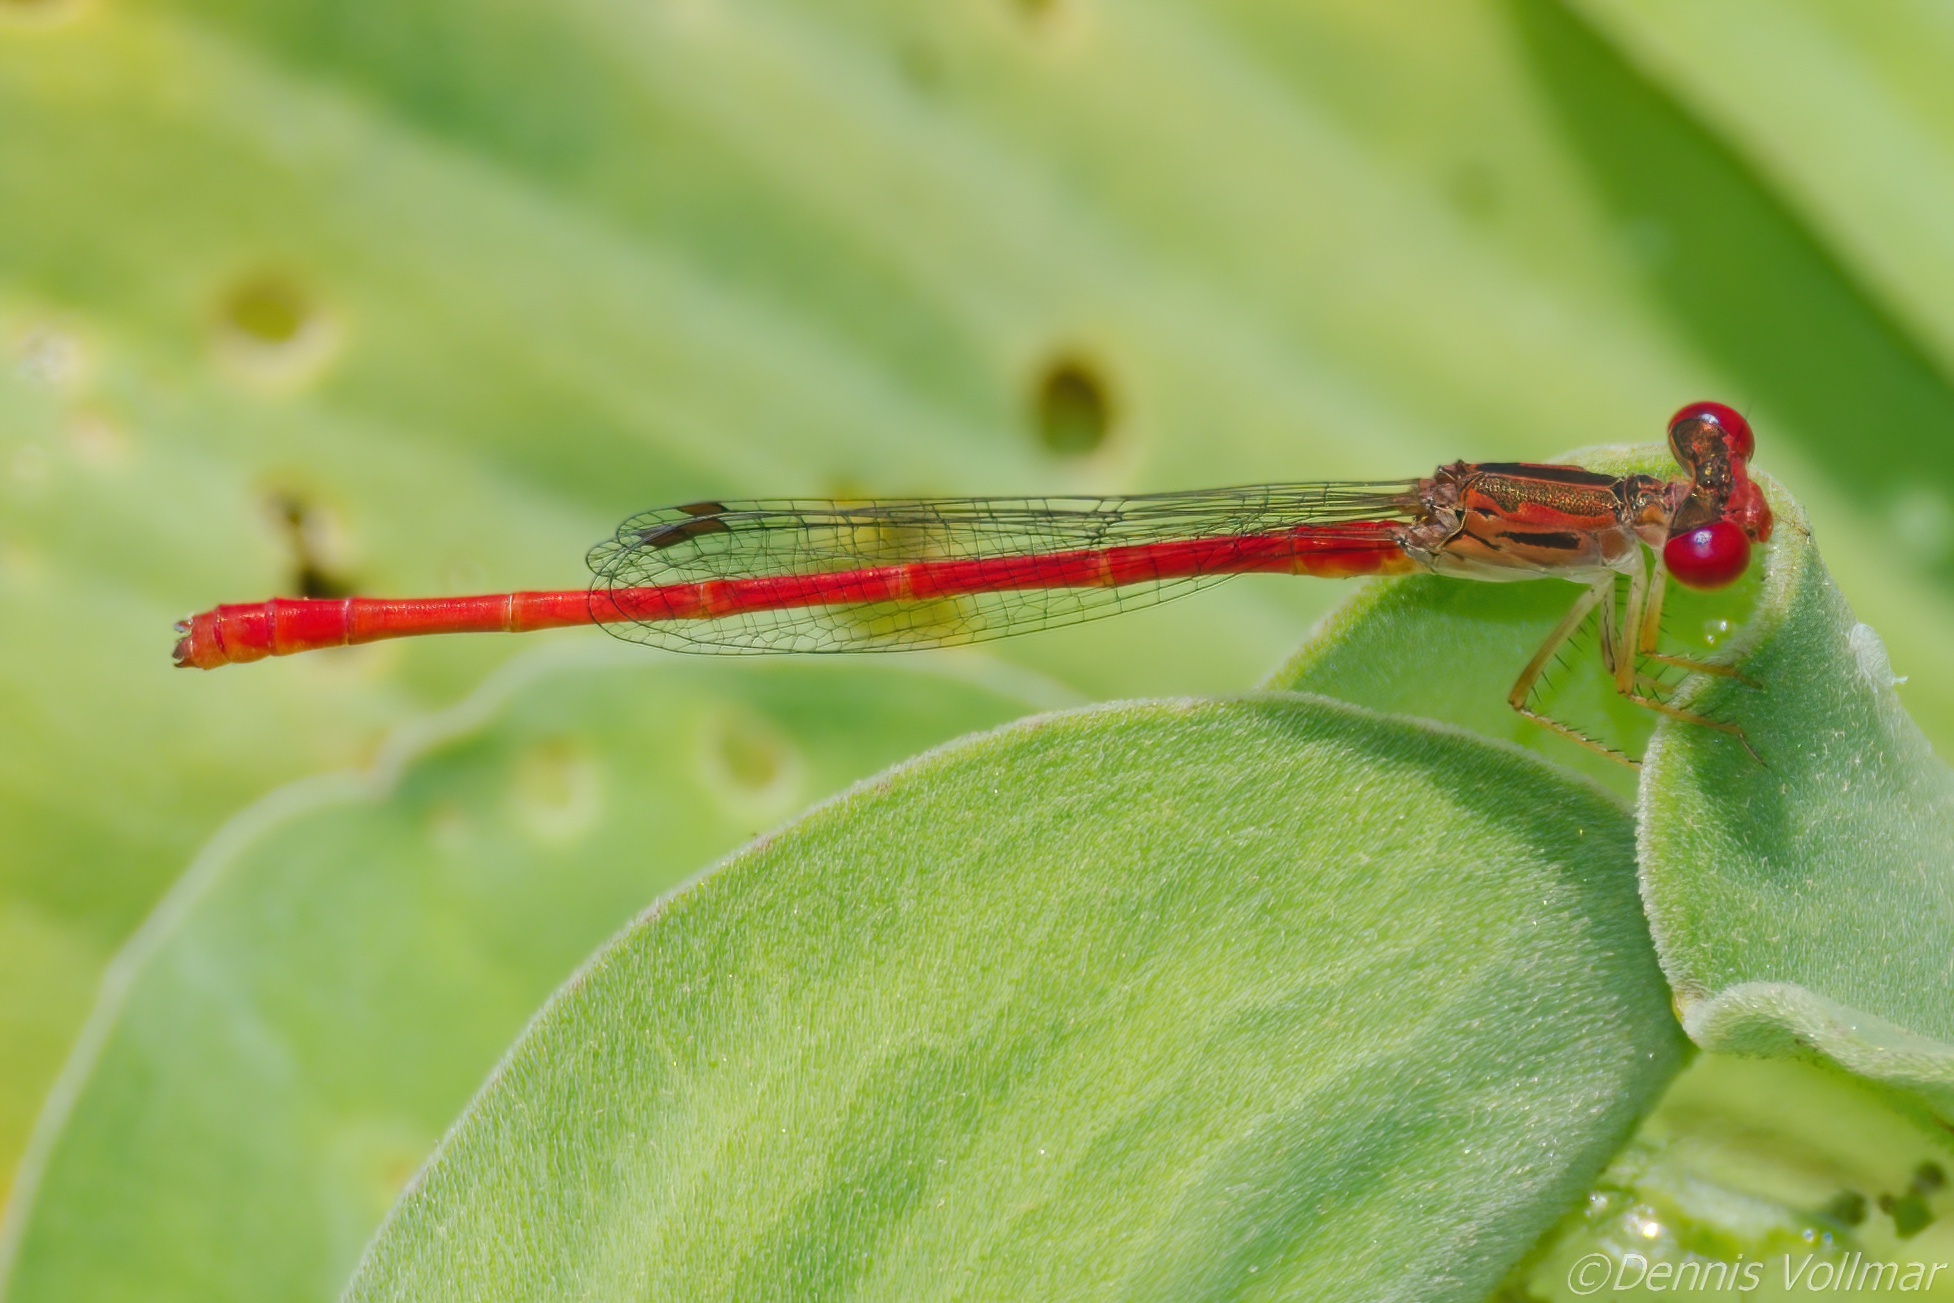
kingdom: Animalia
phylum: Arthropoda
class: Insecta
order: Odonata
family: Coenagrionidae
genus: Telebasis
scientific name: Telebasis byersi
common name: Duckweed firetail
